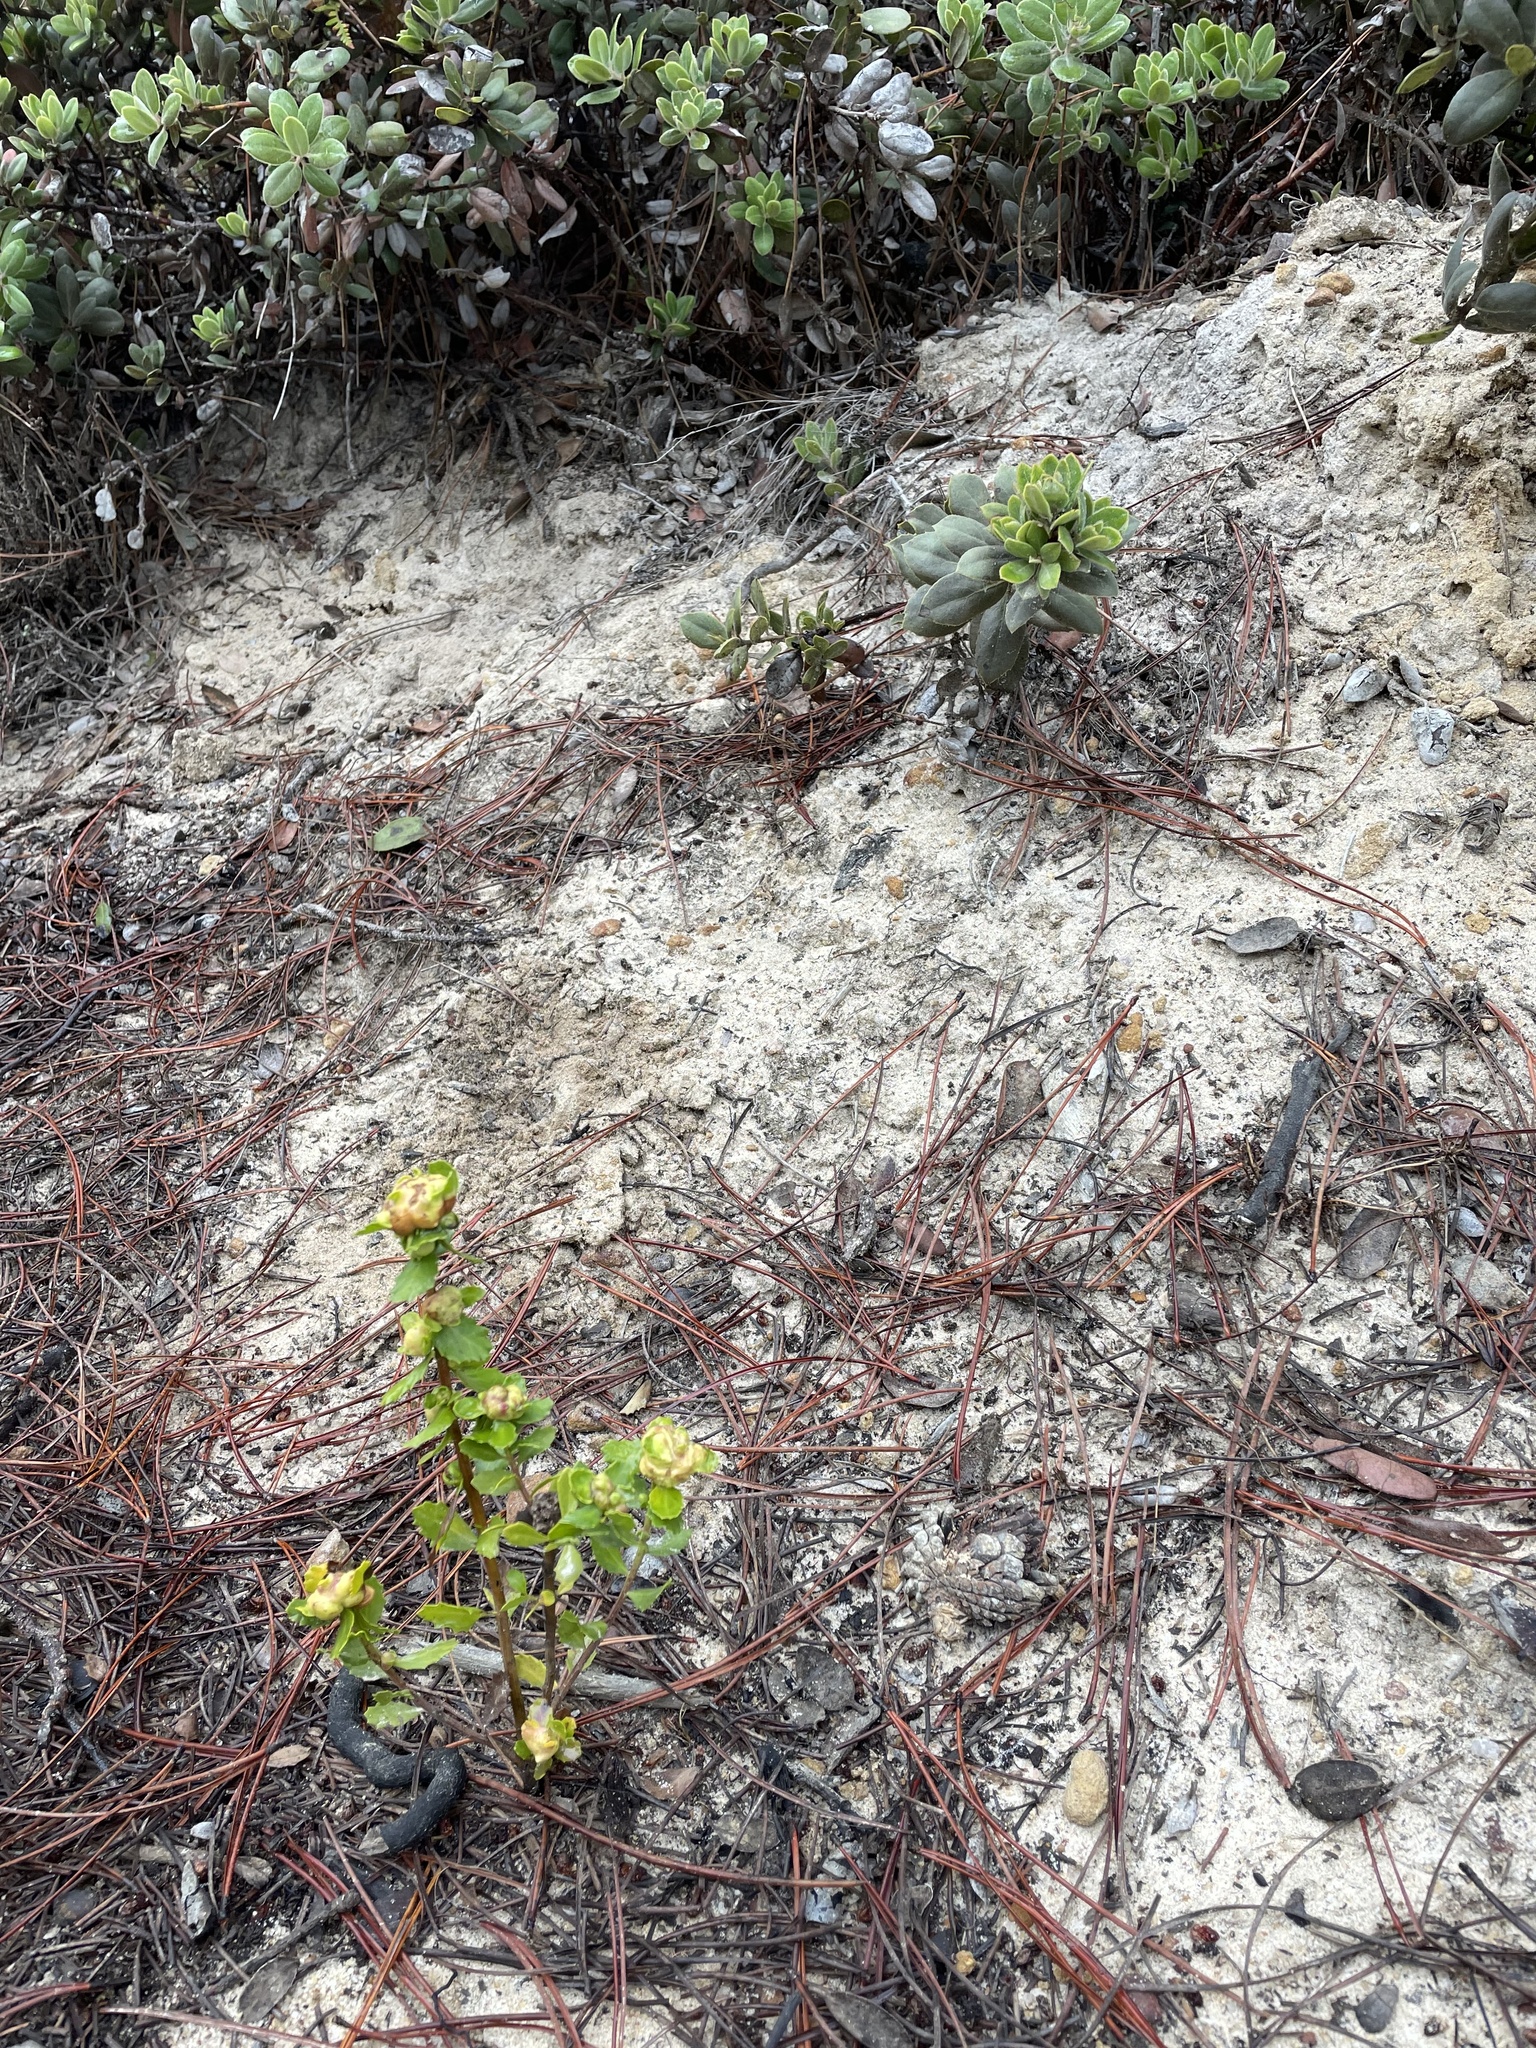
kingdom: Animalia
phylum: Arthropoda
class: Insecta
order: Diptera
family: Cecidomyiidae
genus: Rhopalomyia
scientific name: Rhopalomyia californica
